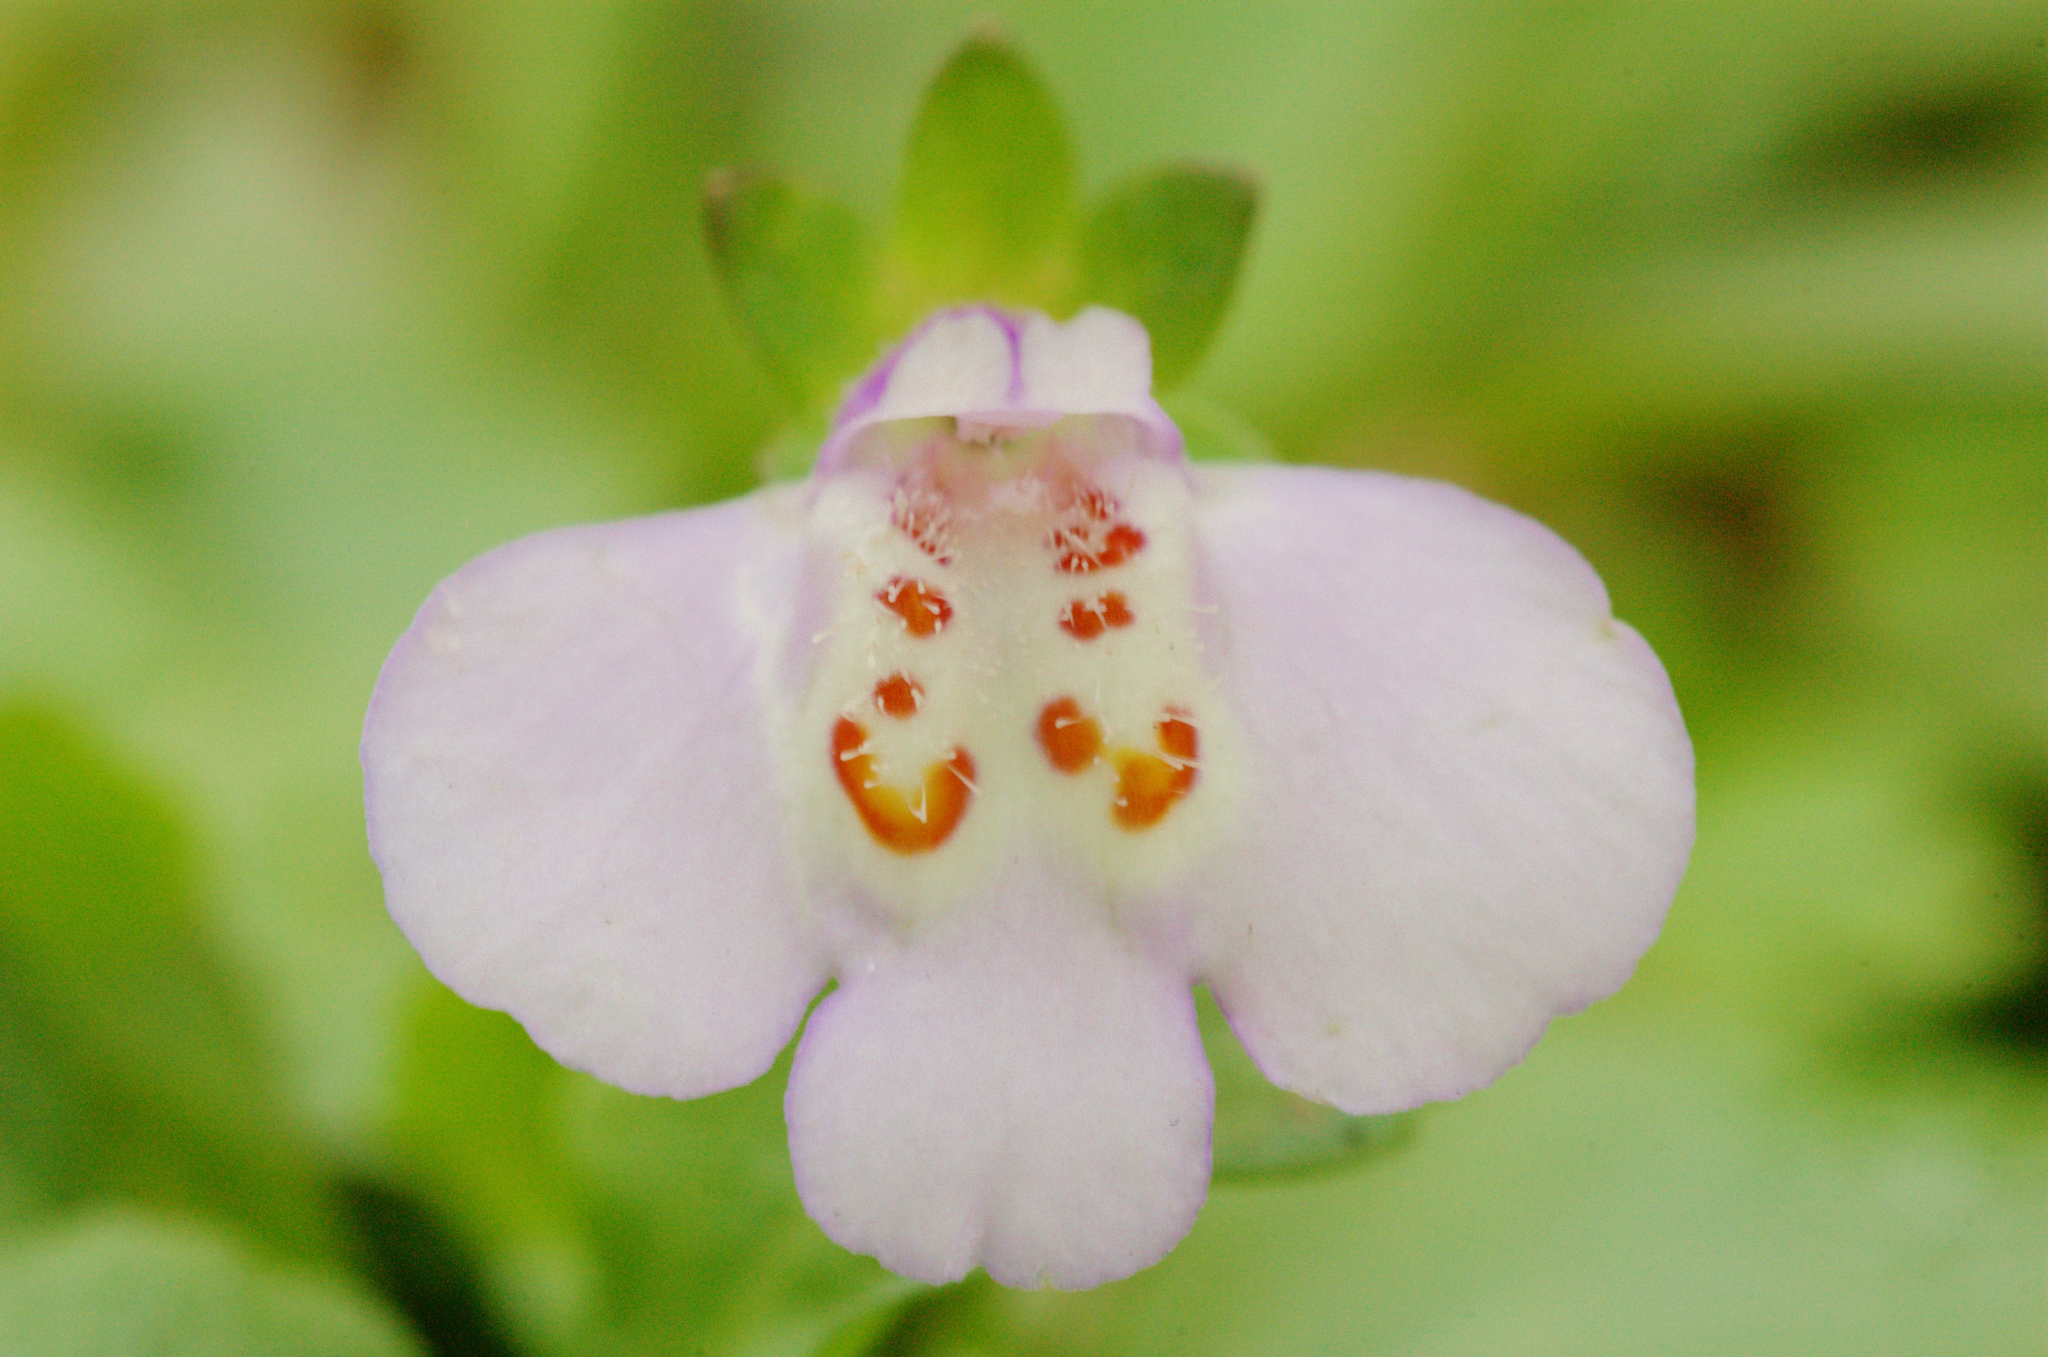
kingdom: Plantae
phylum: Tracheophyta
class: Magnoliopsida
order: Lamiales
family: Mazaceae
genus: Mazus
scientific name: Mazus fauriei
